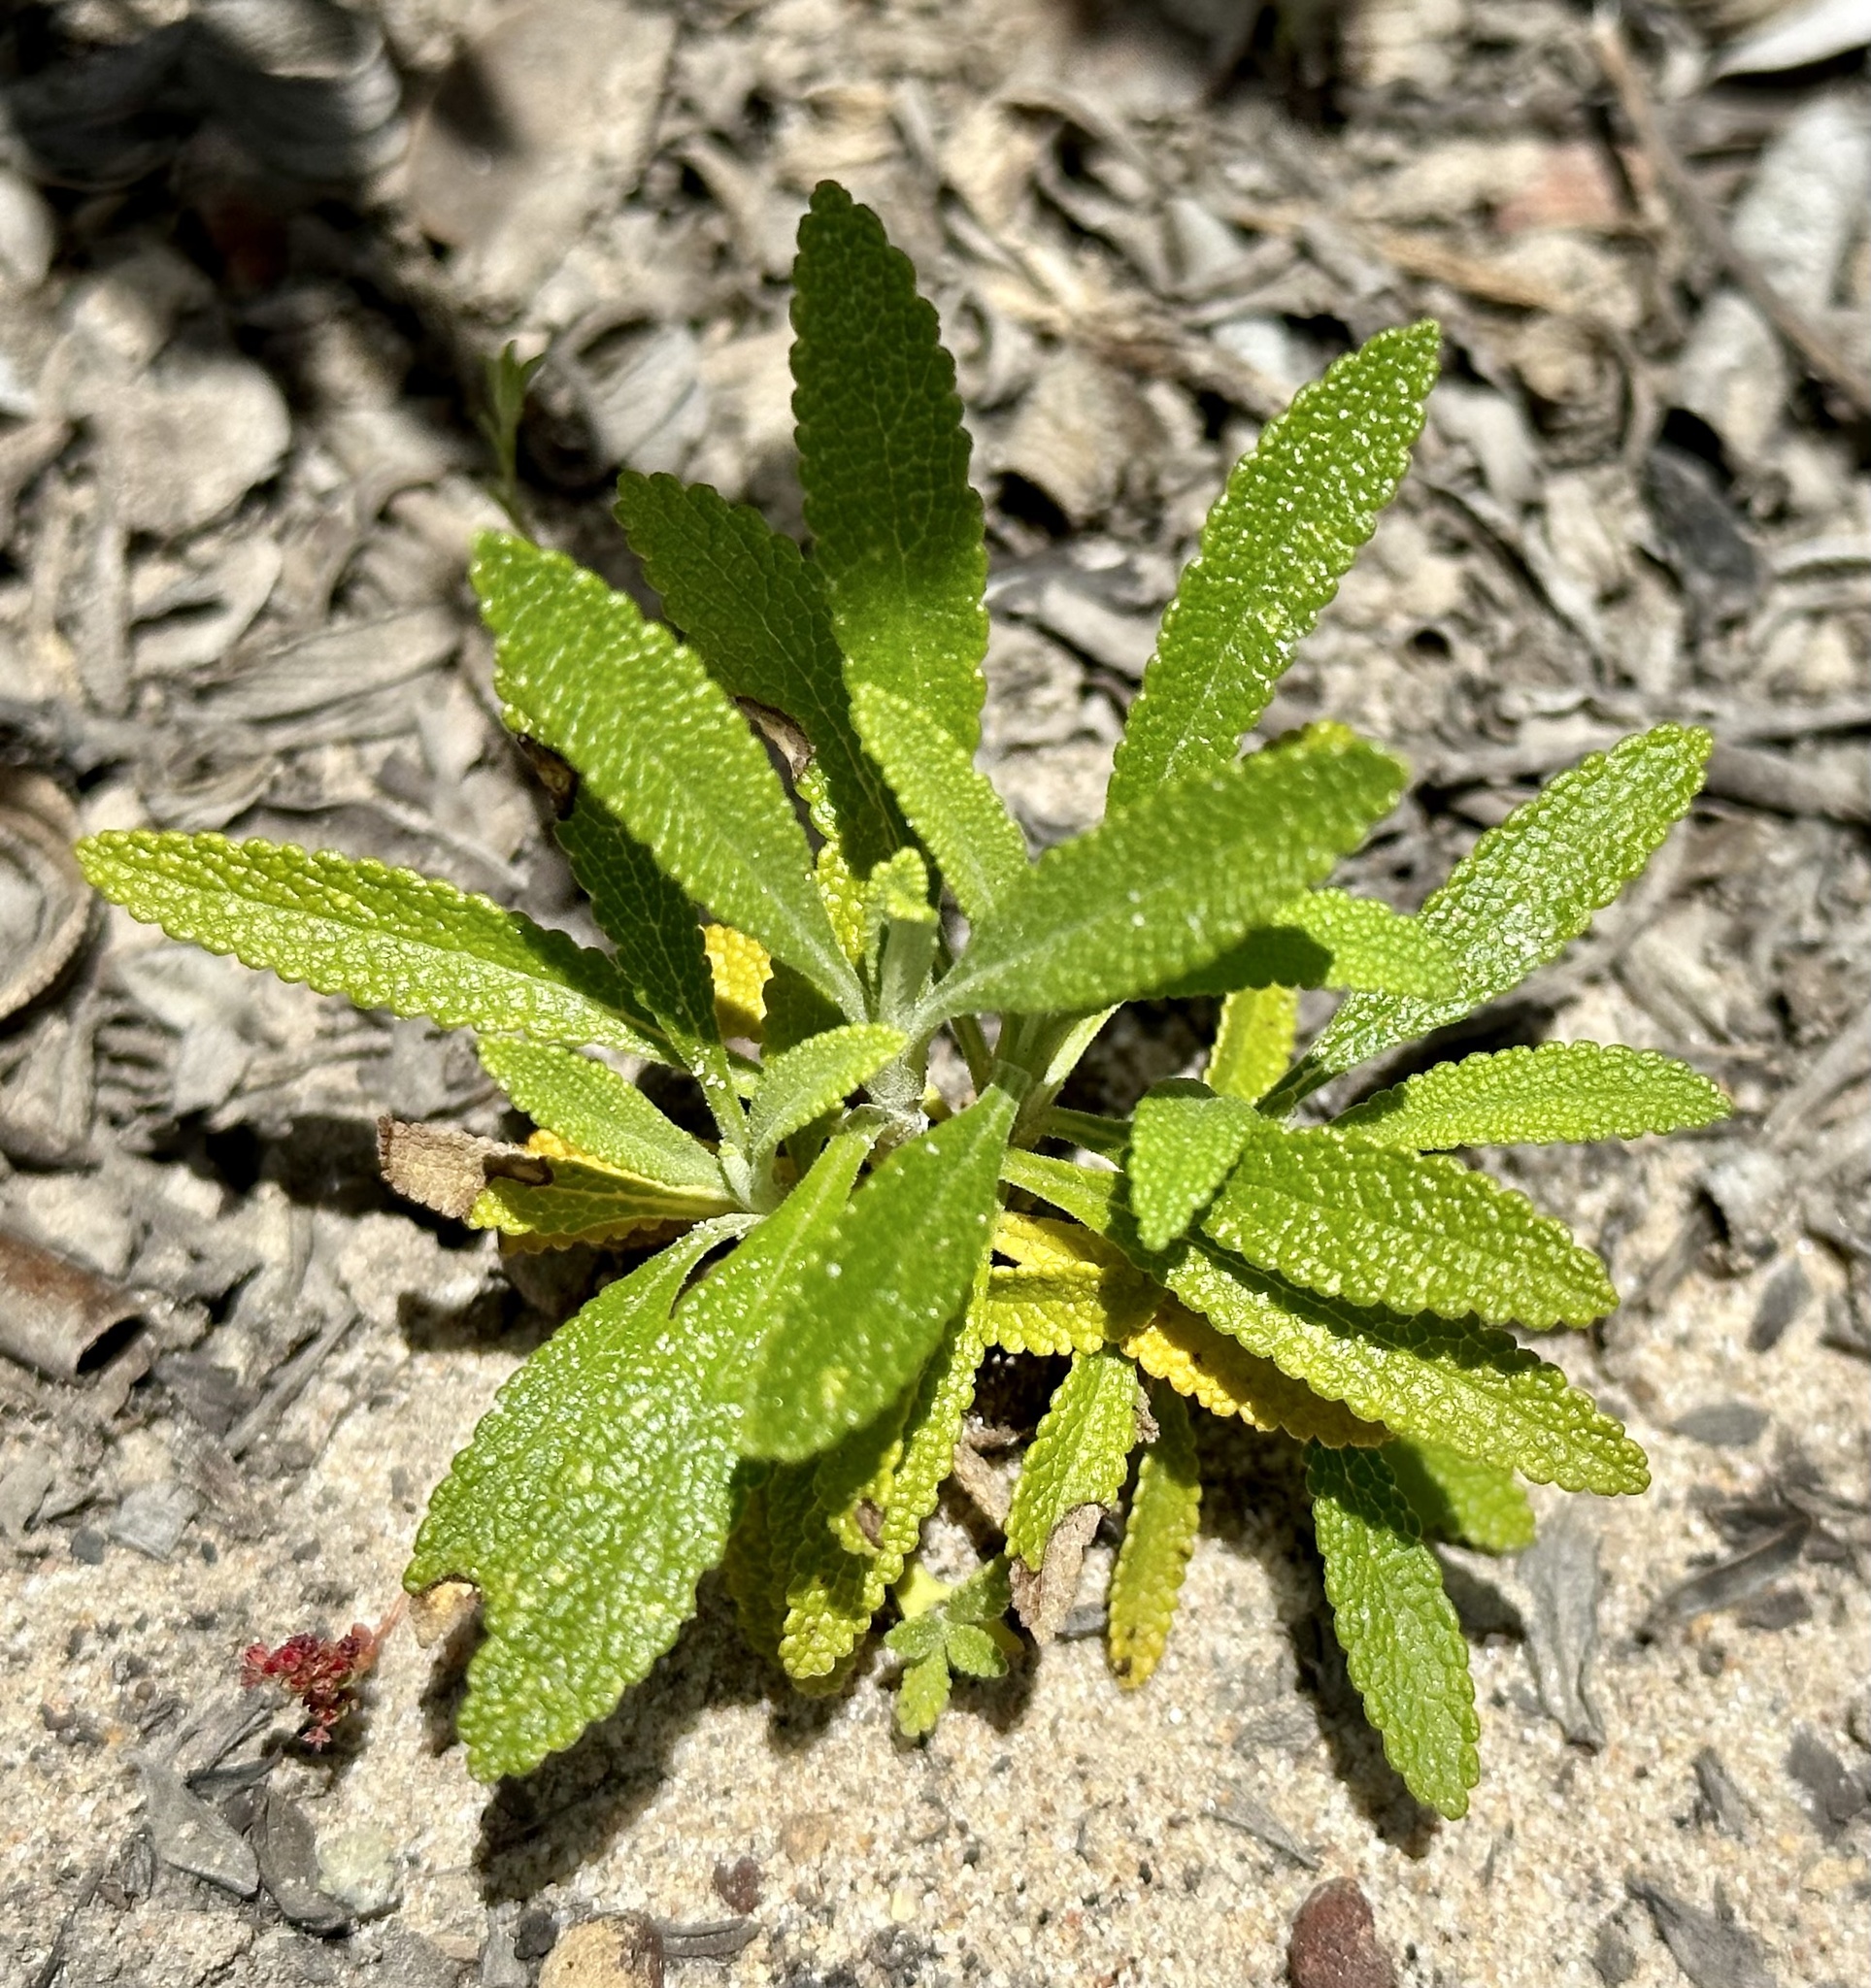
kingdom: Plantae
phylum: Tracheophyta
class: Magnoliopsida
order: Lamiales
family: Lamiaceae
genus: Salvia
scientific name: Salvia mellifera
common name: Black sage
